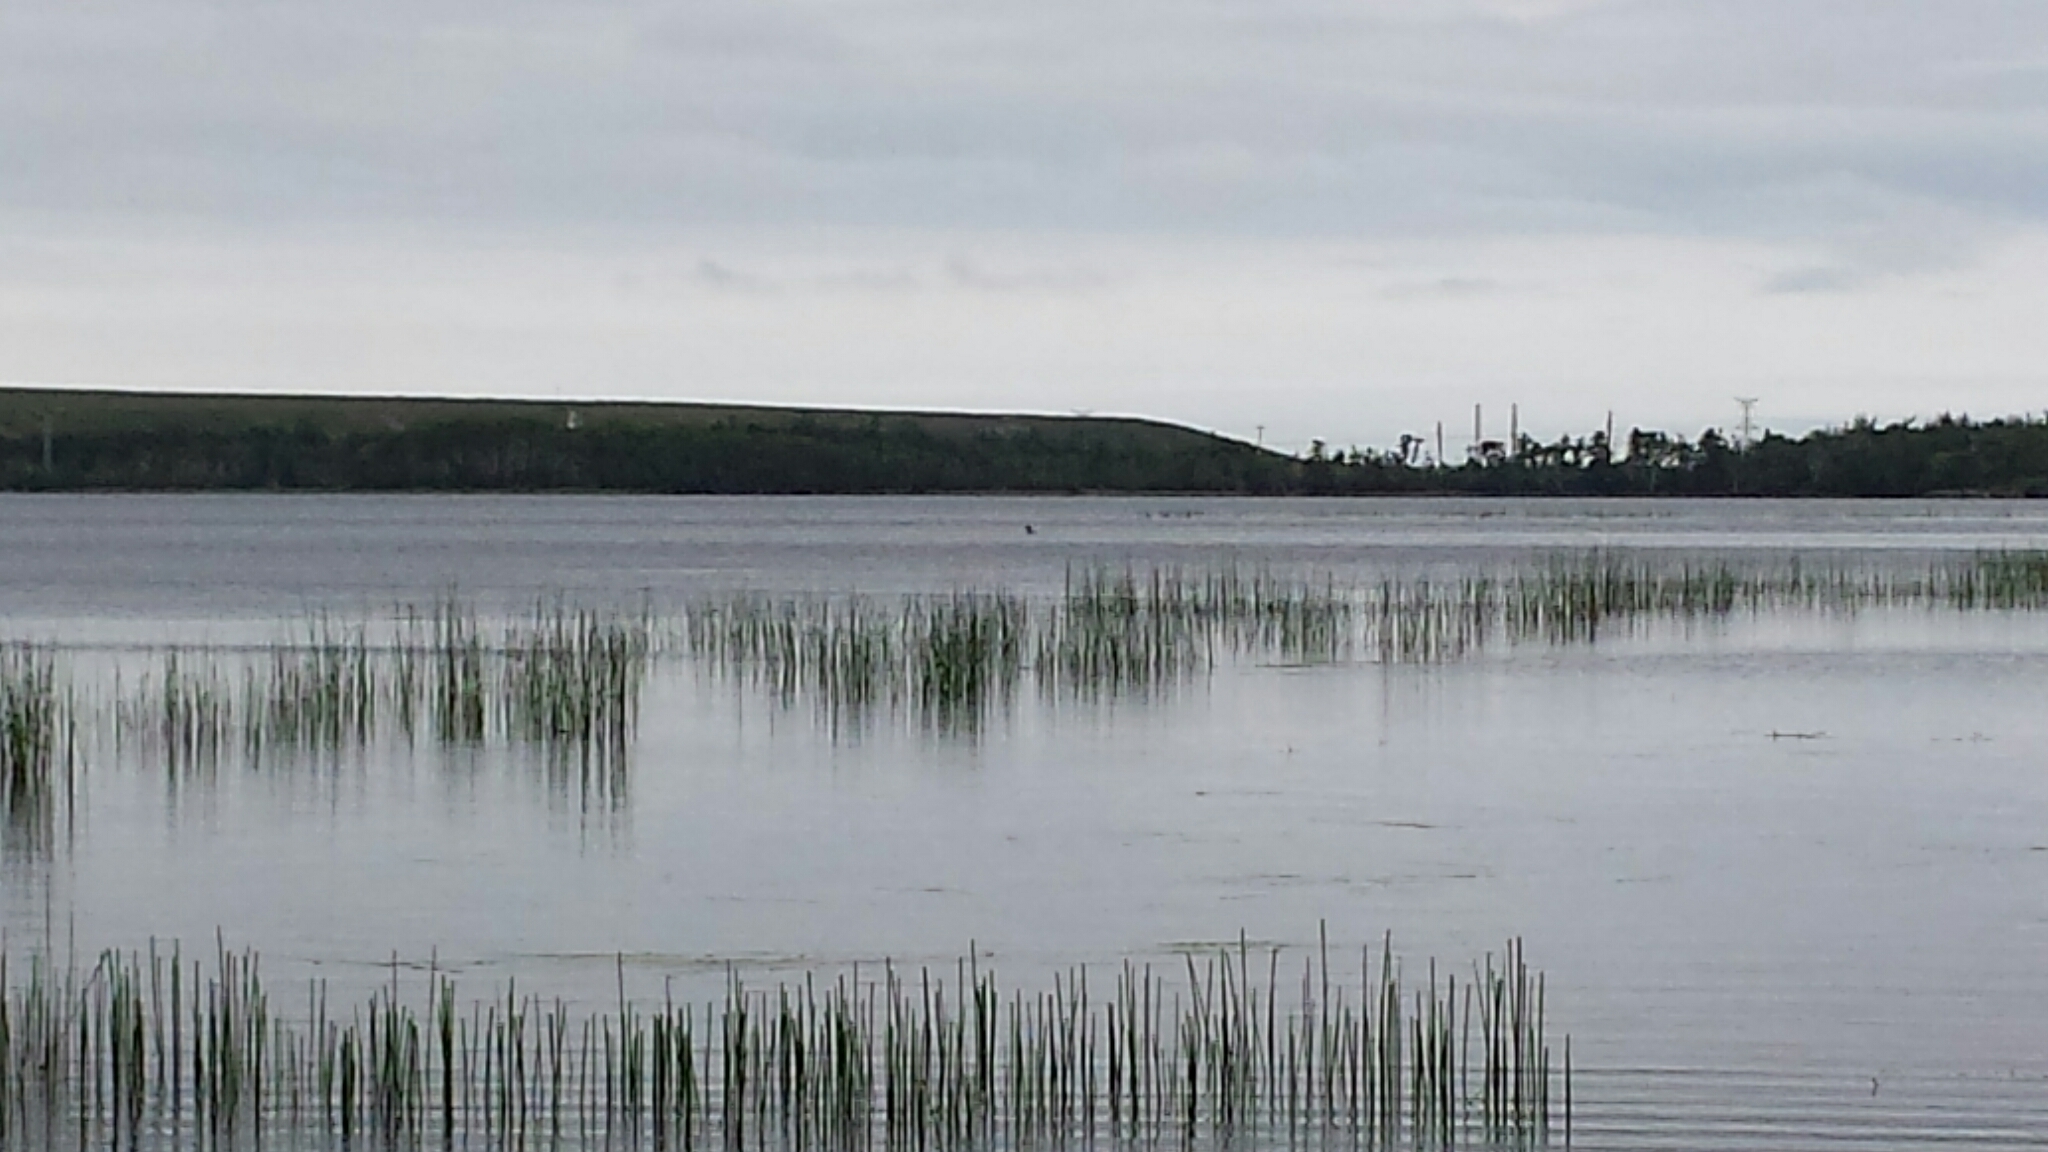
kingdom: Animalia
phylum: Chordata
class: Aves
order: Gaviiformes
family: Gaviidae
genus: Gavia
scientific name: Gavia immer
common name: Common loon
